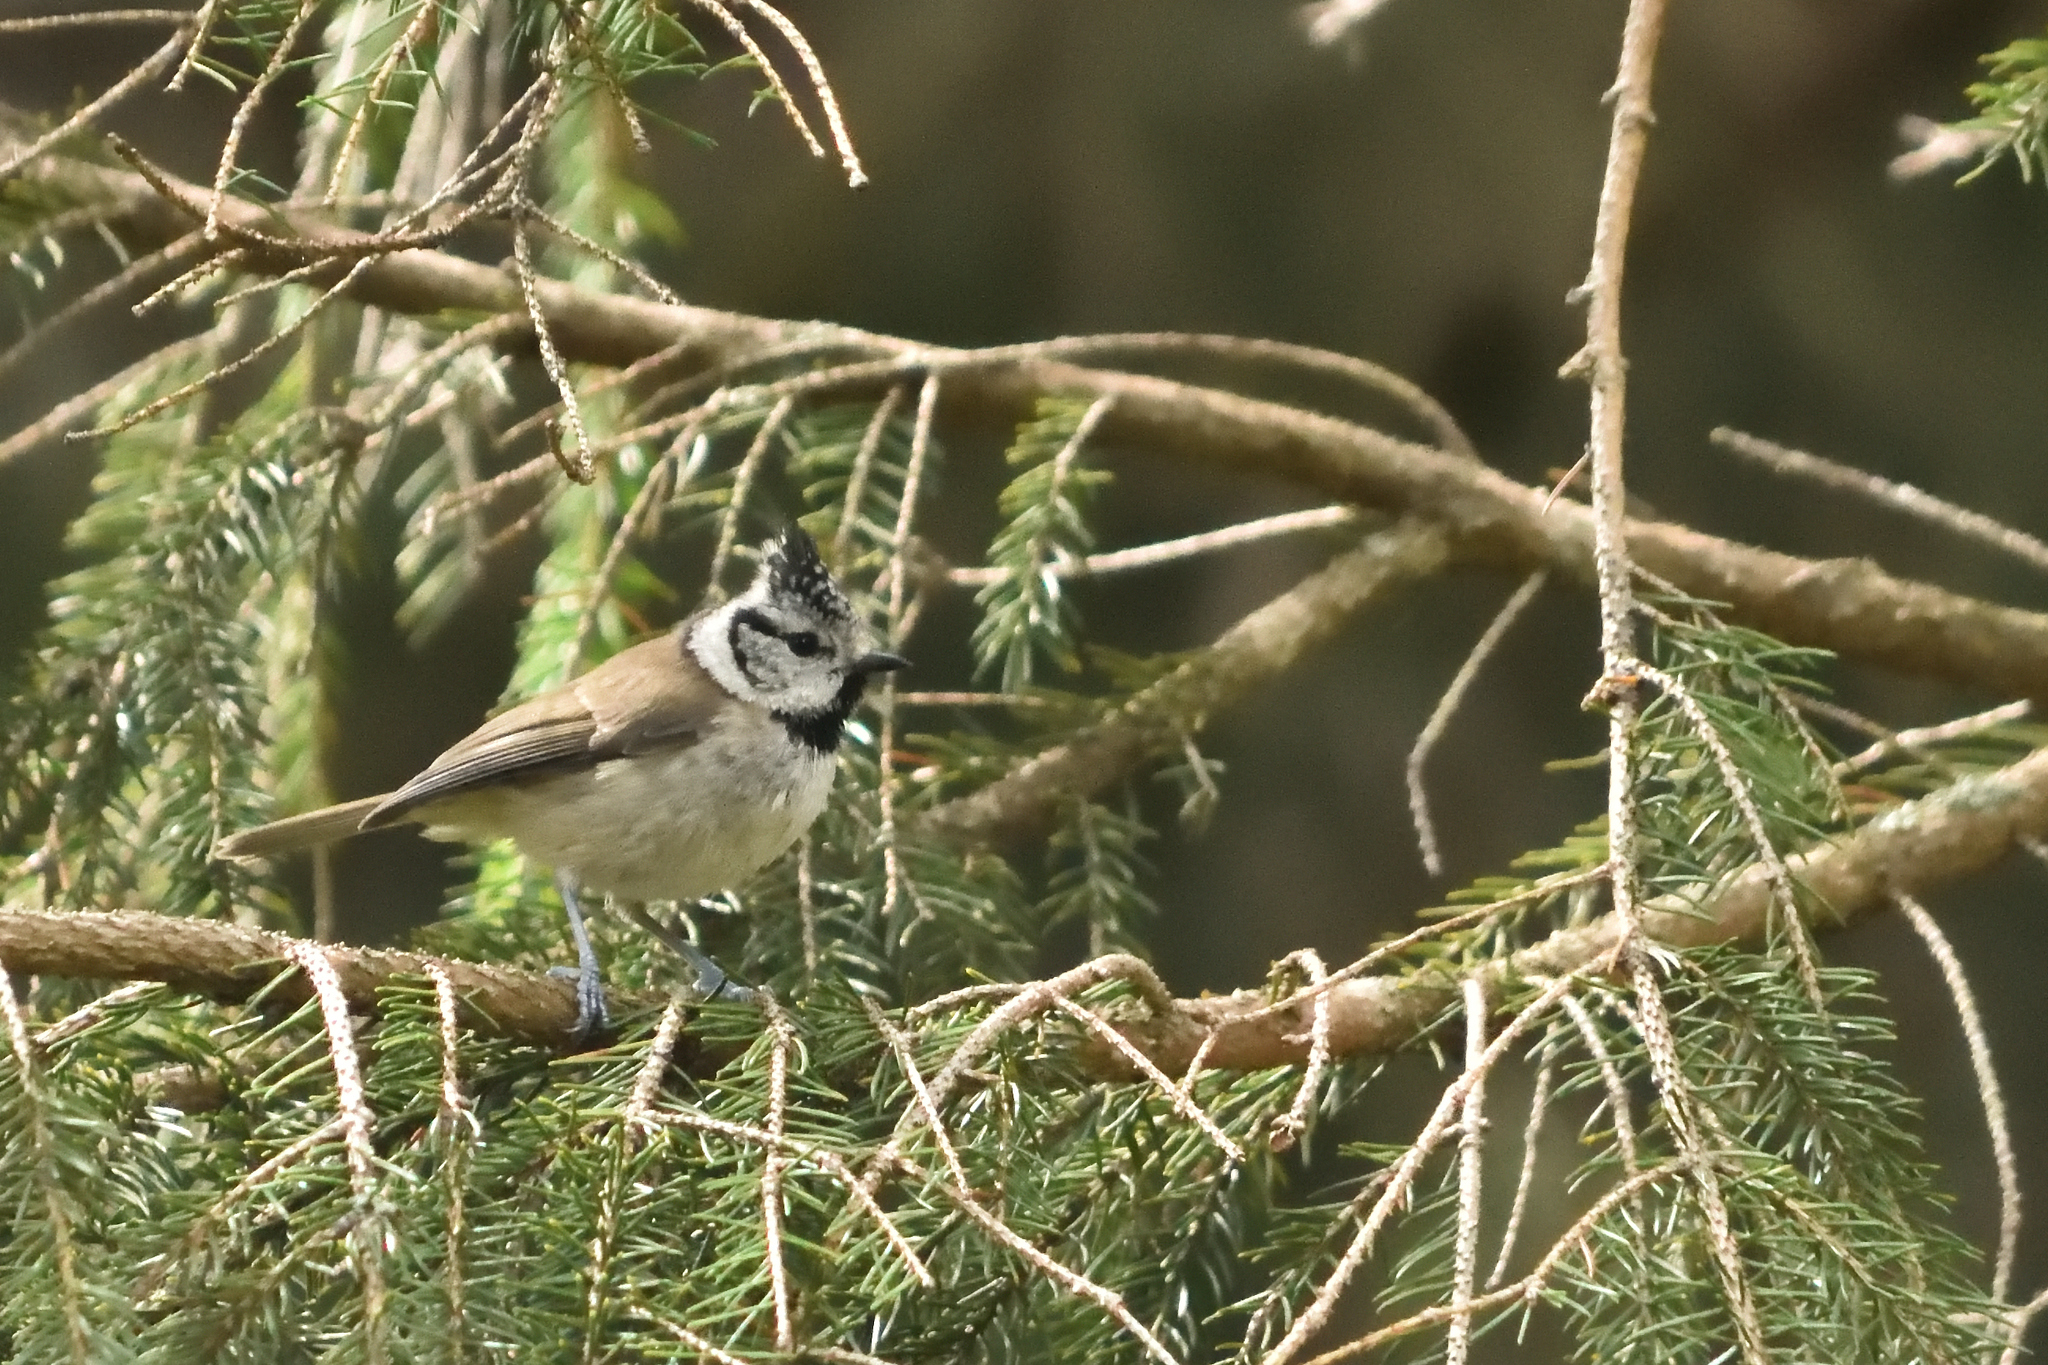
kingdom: Animalia
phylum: Chordata
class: Aves
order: Passeriformes
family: Paridae
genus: Lophophanes
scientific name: Lophophanes cristatus
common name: European crested tit
